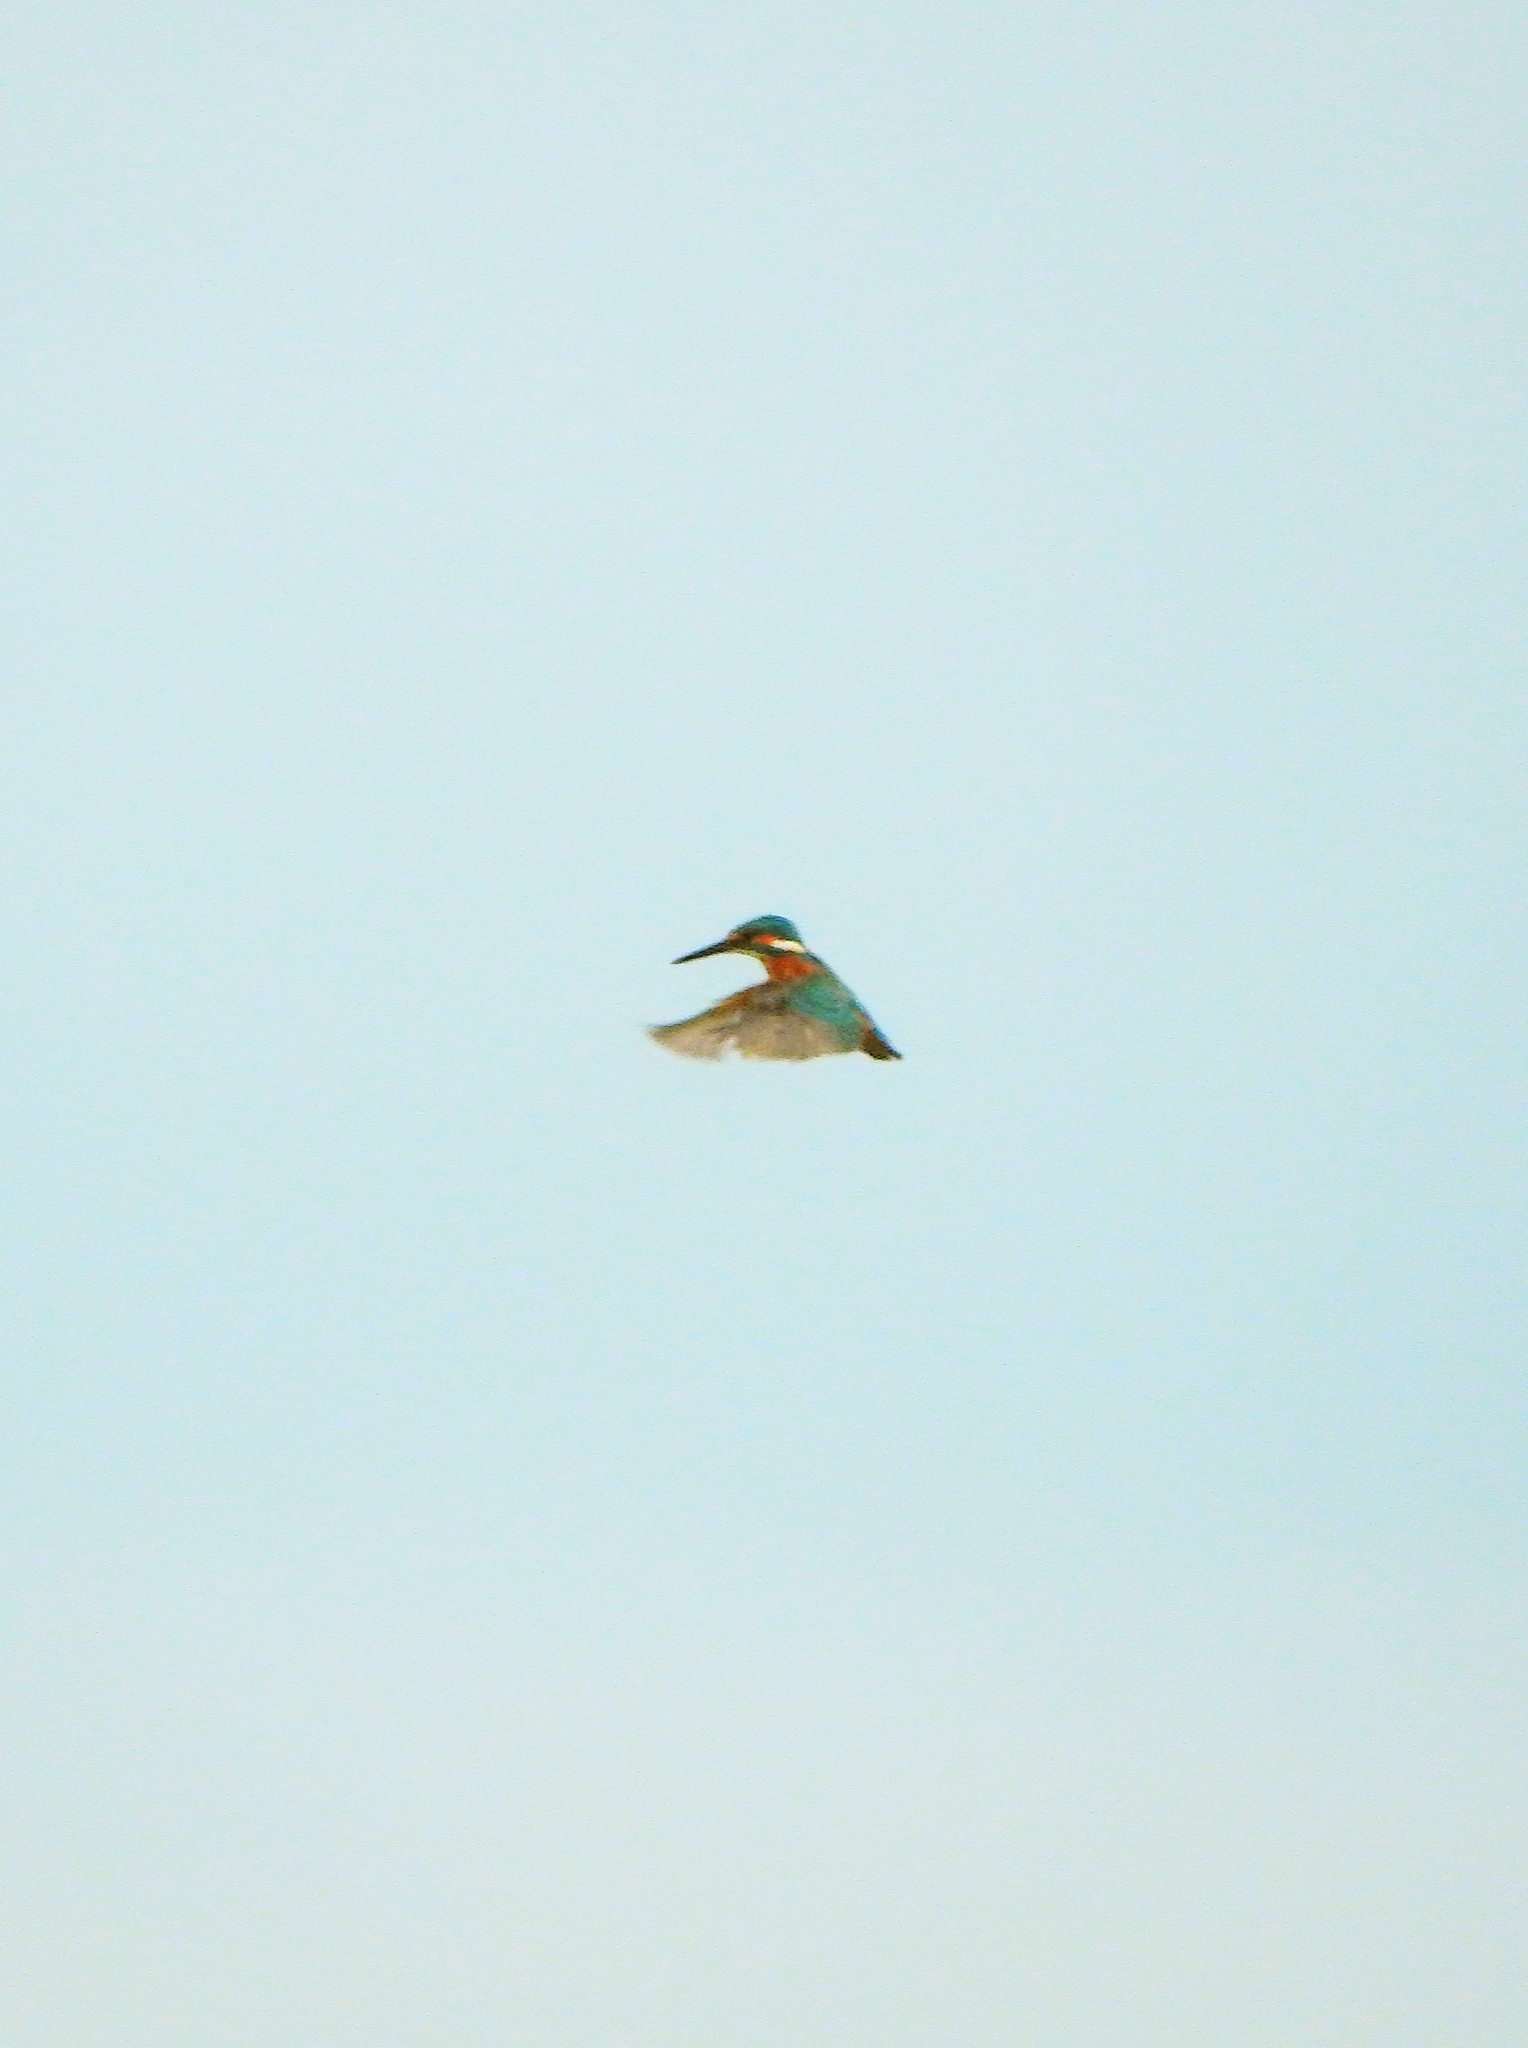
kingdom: Animalia
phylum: Chordata
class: Aves
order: Coraciiformes
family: Alcedinidae
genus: Alcedo
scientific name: Alcedo atthis
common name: Common kingfisher
